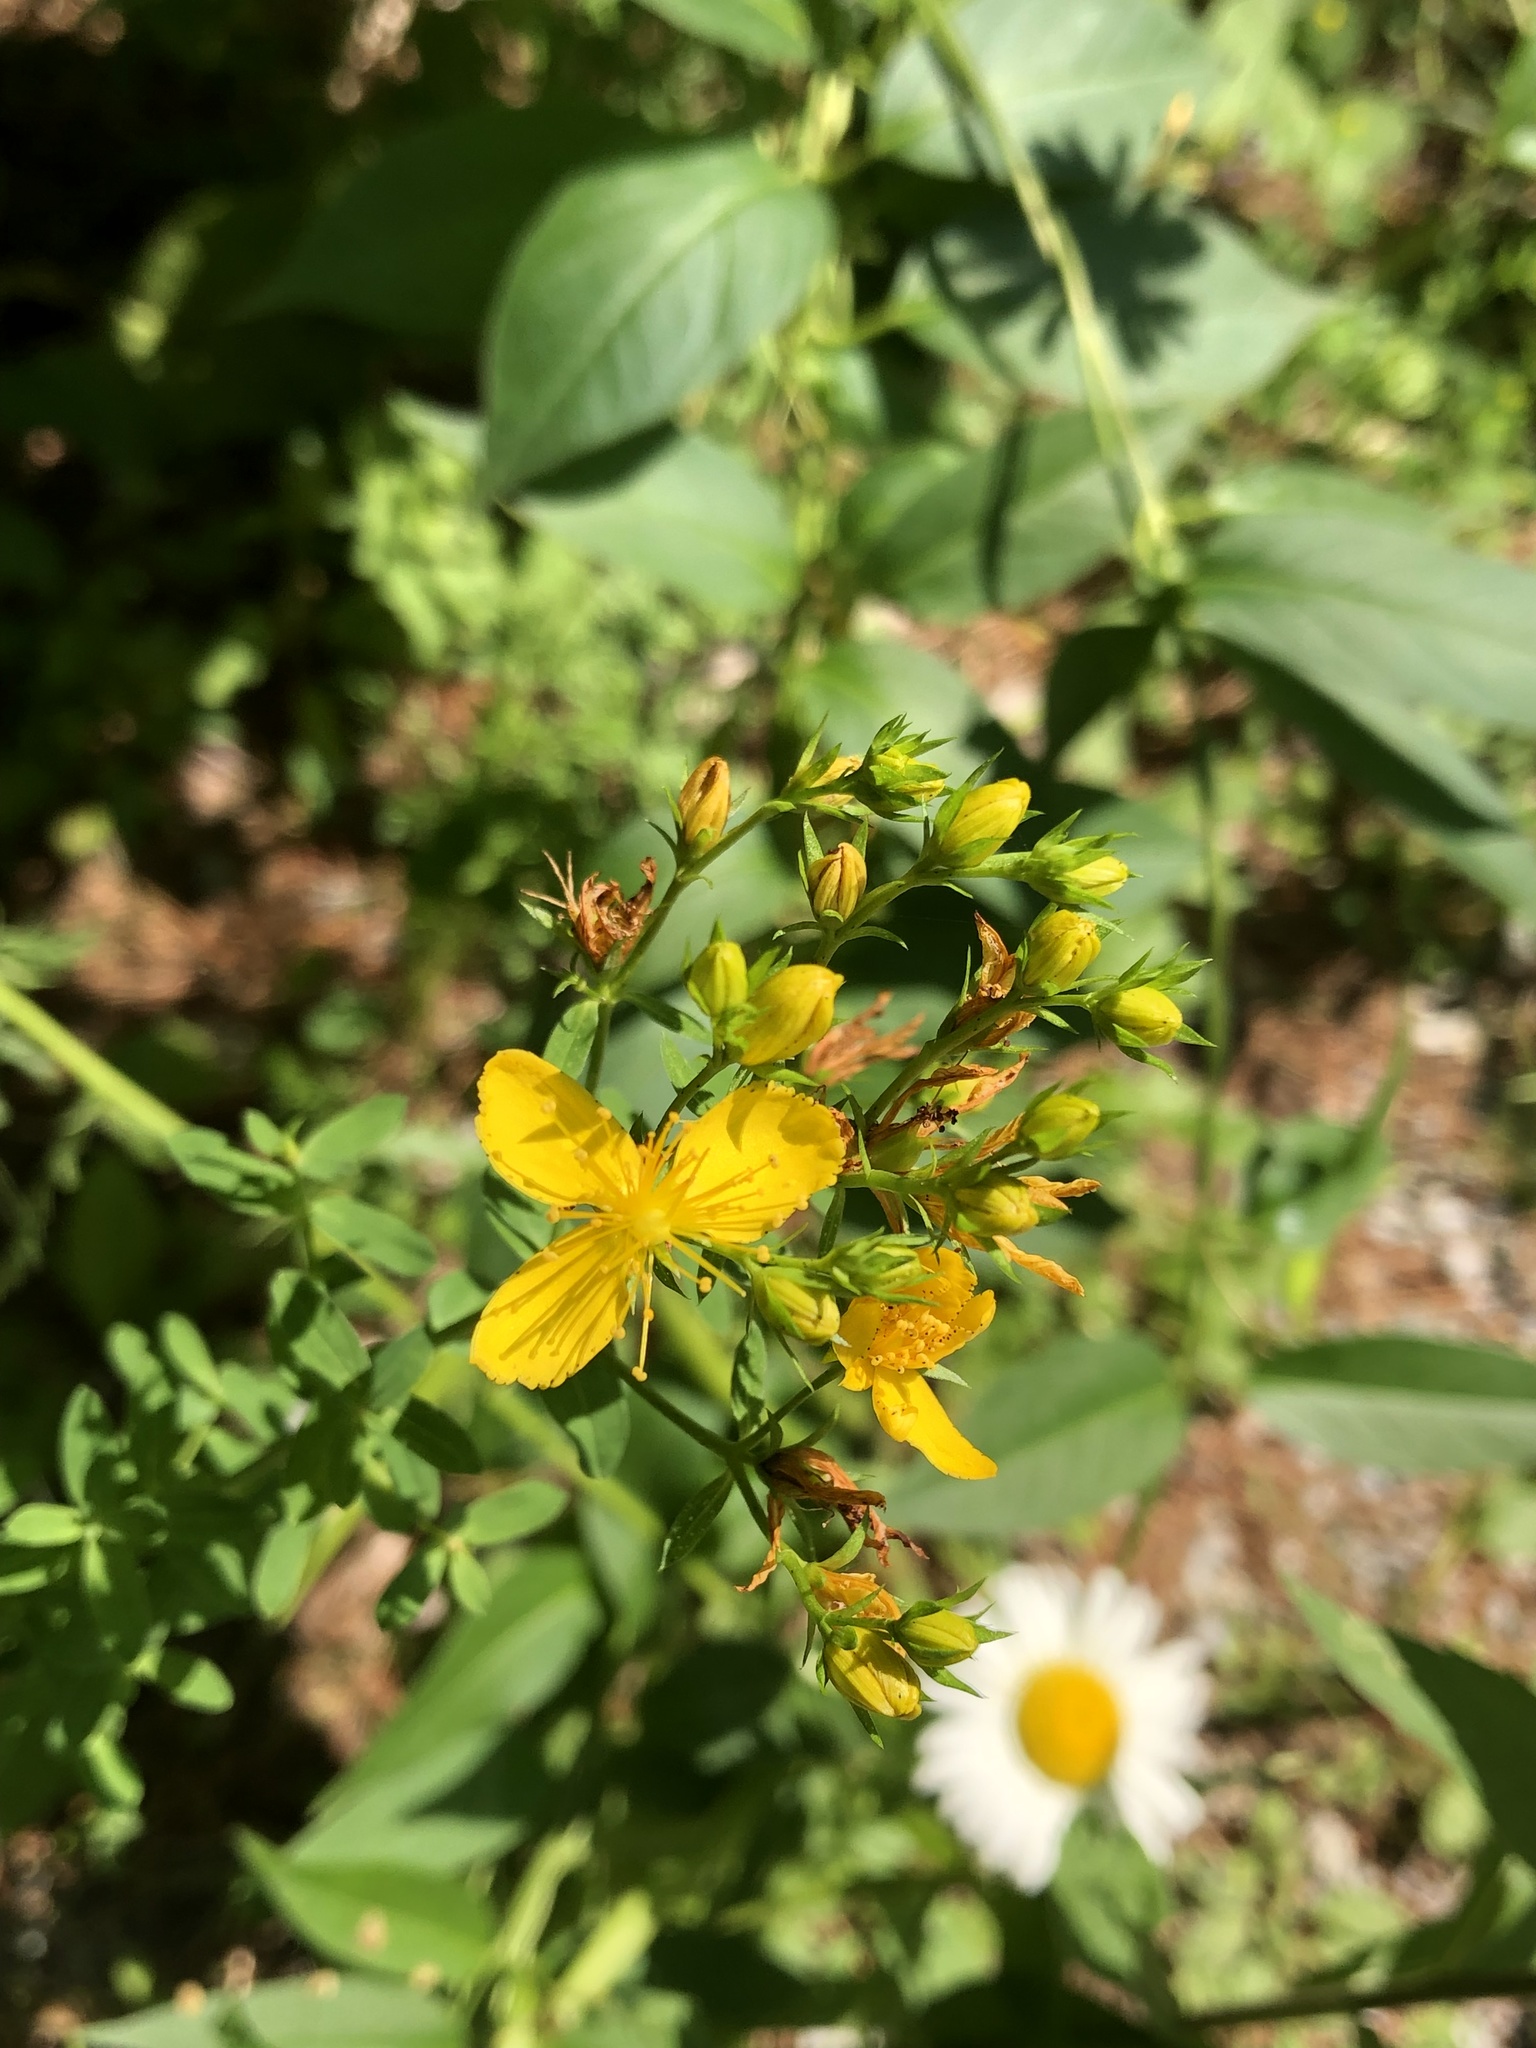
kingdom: Plantae
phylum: Tracheophyta
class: Magnoliopsida
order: Malpighiales
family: Hypericaceae
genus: Hypericum
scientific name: Hypericum perforatum
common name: Common st. johnswort
